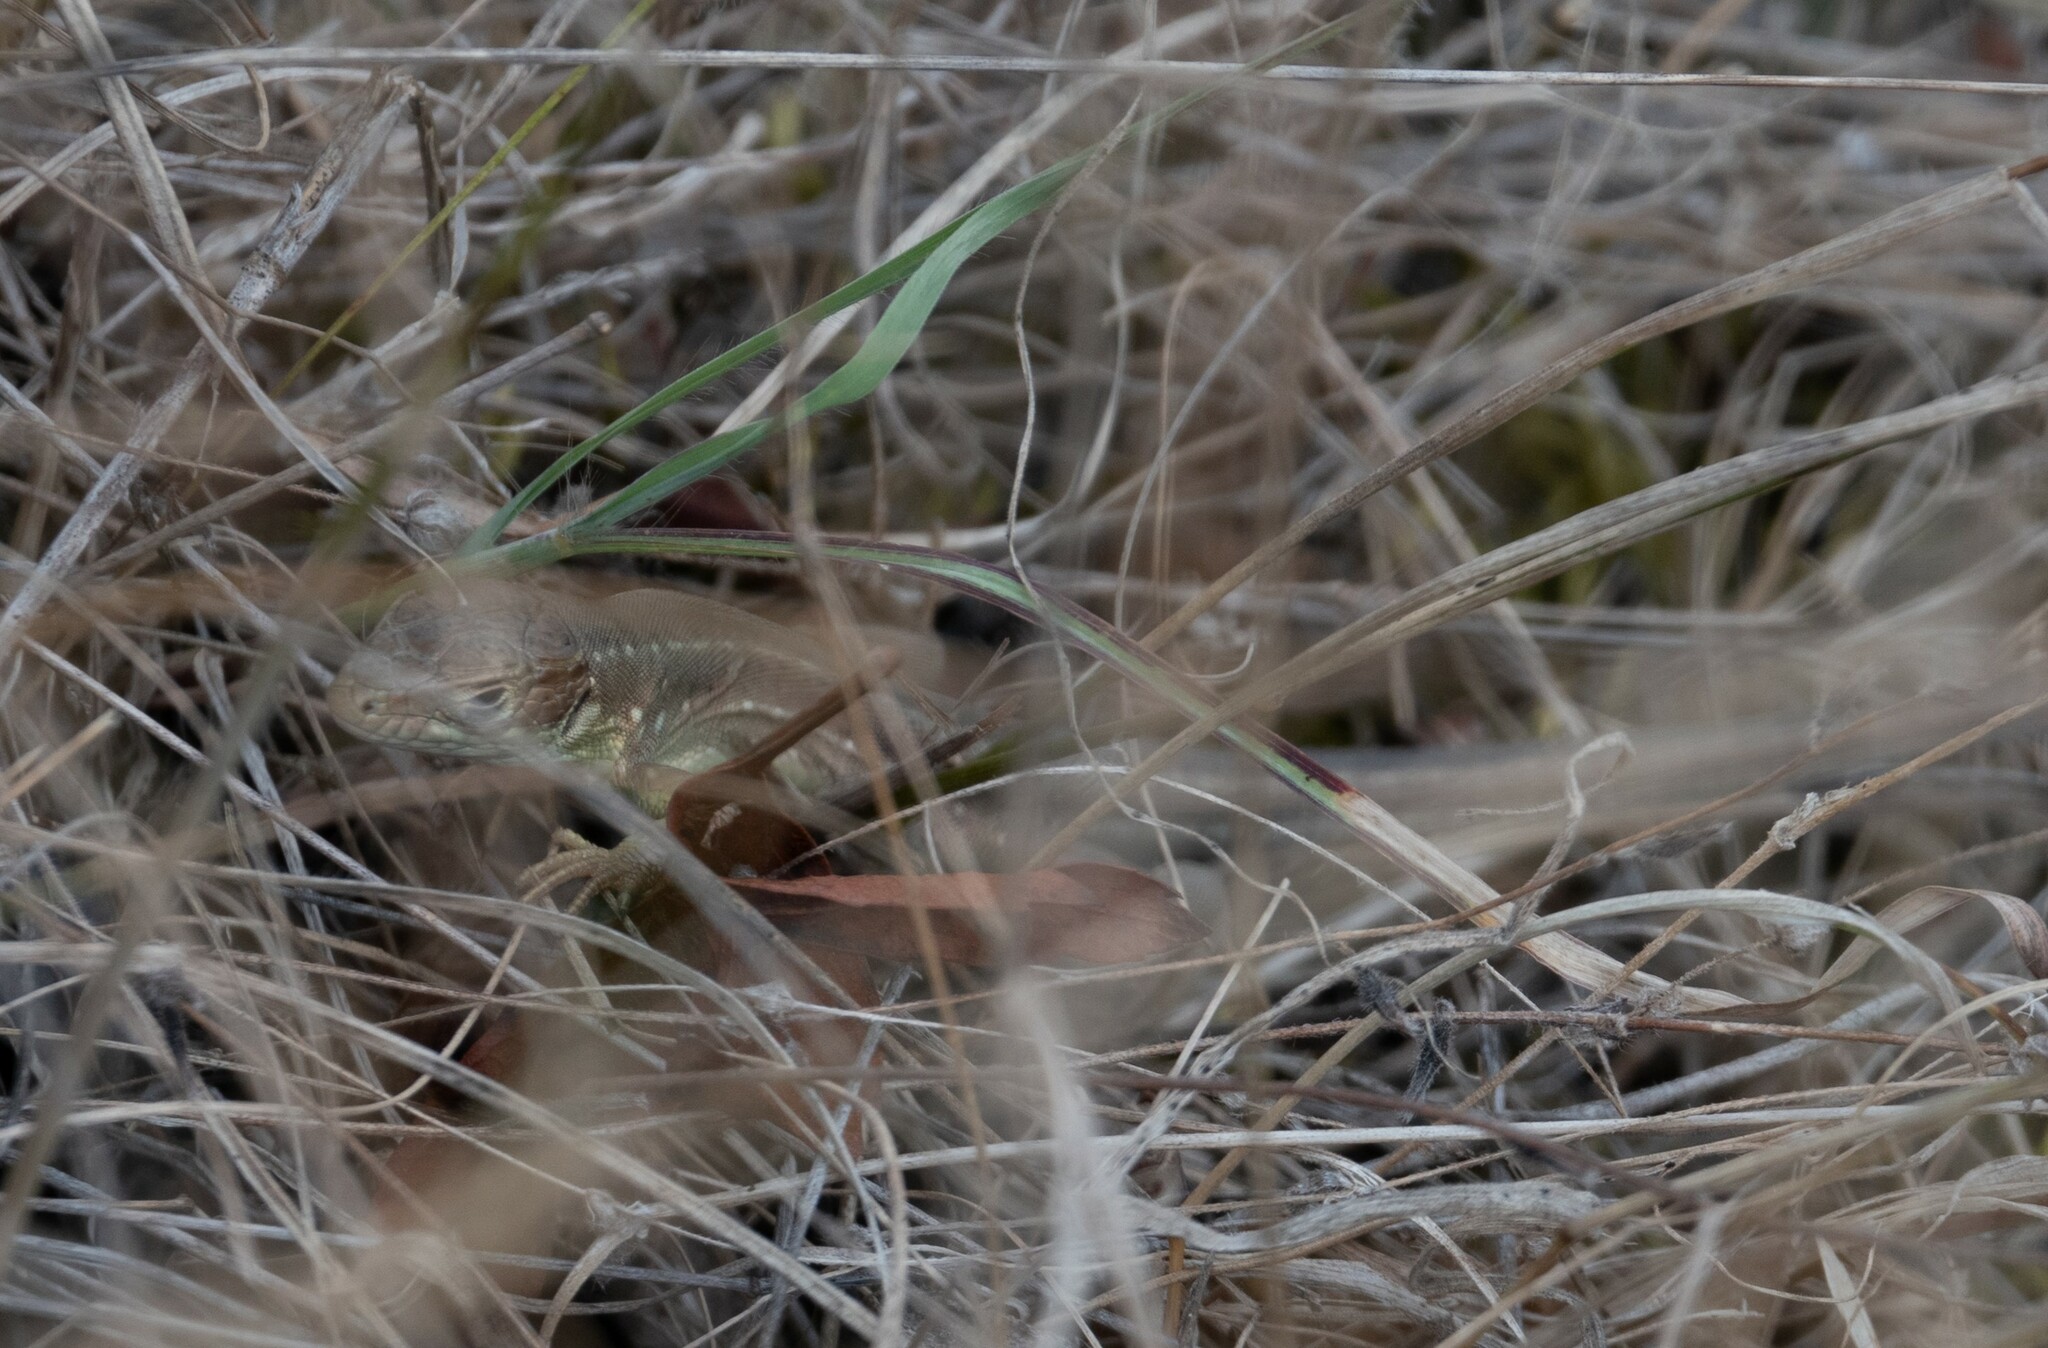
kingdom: Animalia
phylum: Chordata
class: Squamata
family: Lacertidae
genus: Lacerta
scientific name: Lacerta viridis
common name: European green lizard
